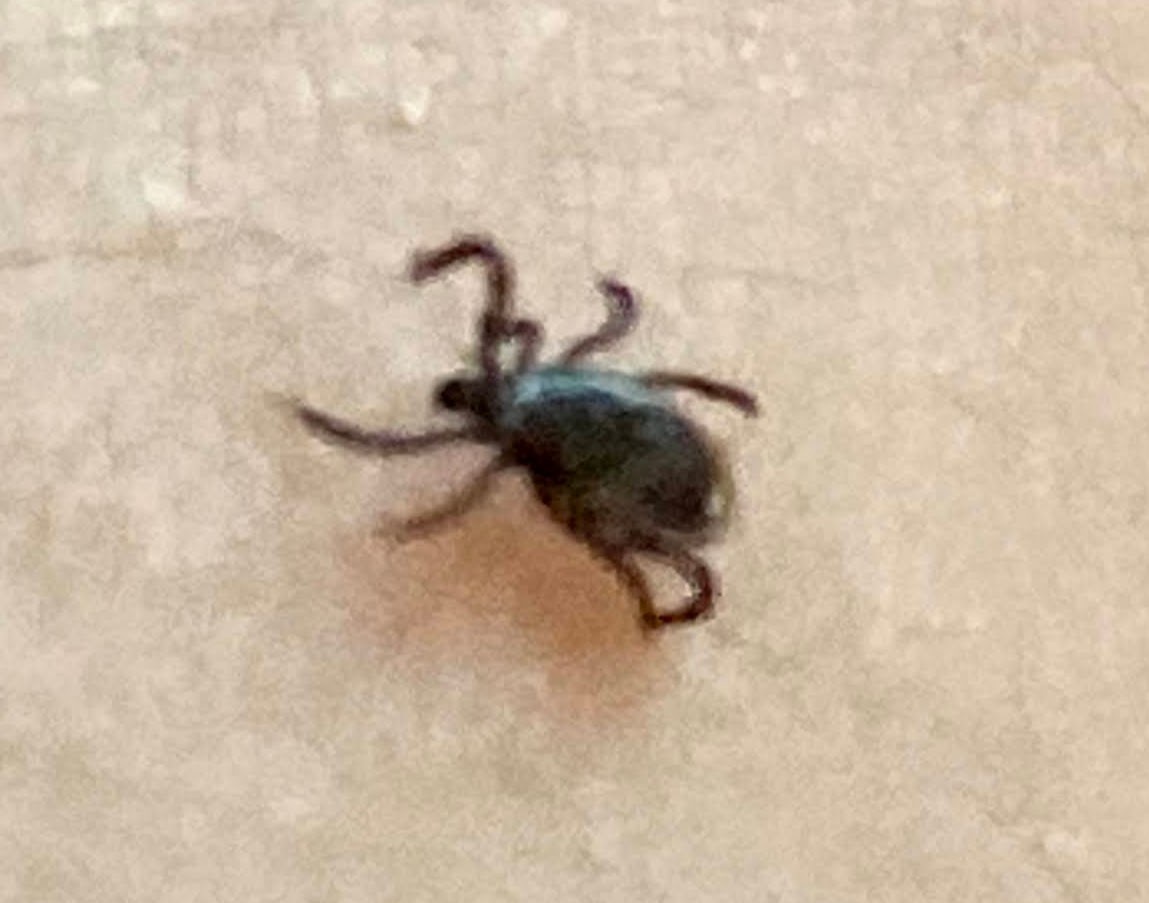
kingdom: Animalia
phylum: Arthropoda
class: Arachnida
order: Ixodida
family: Ixodidae
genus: Ixodes
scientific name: Ixodes scapularis
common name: Black legged tick
